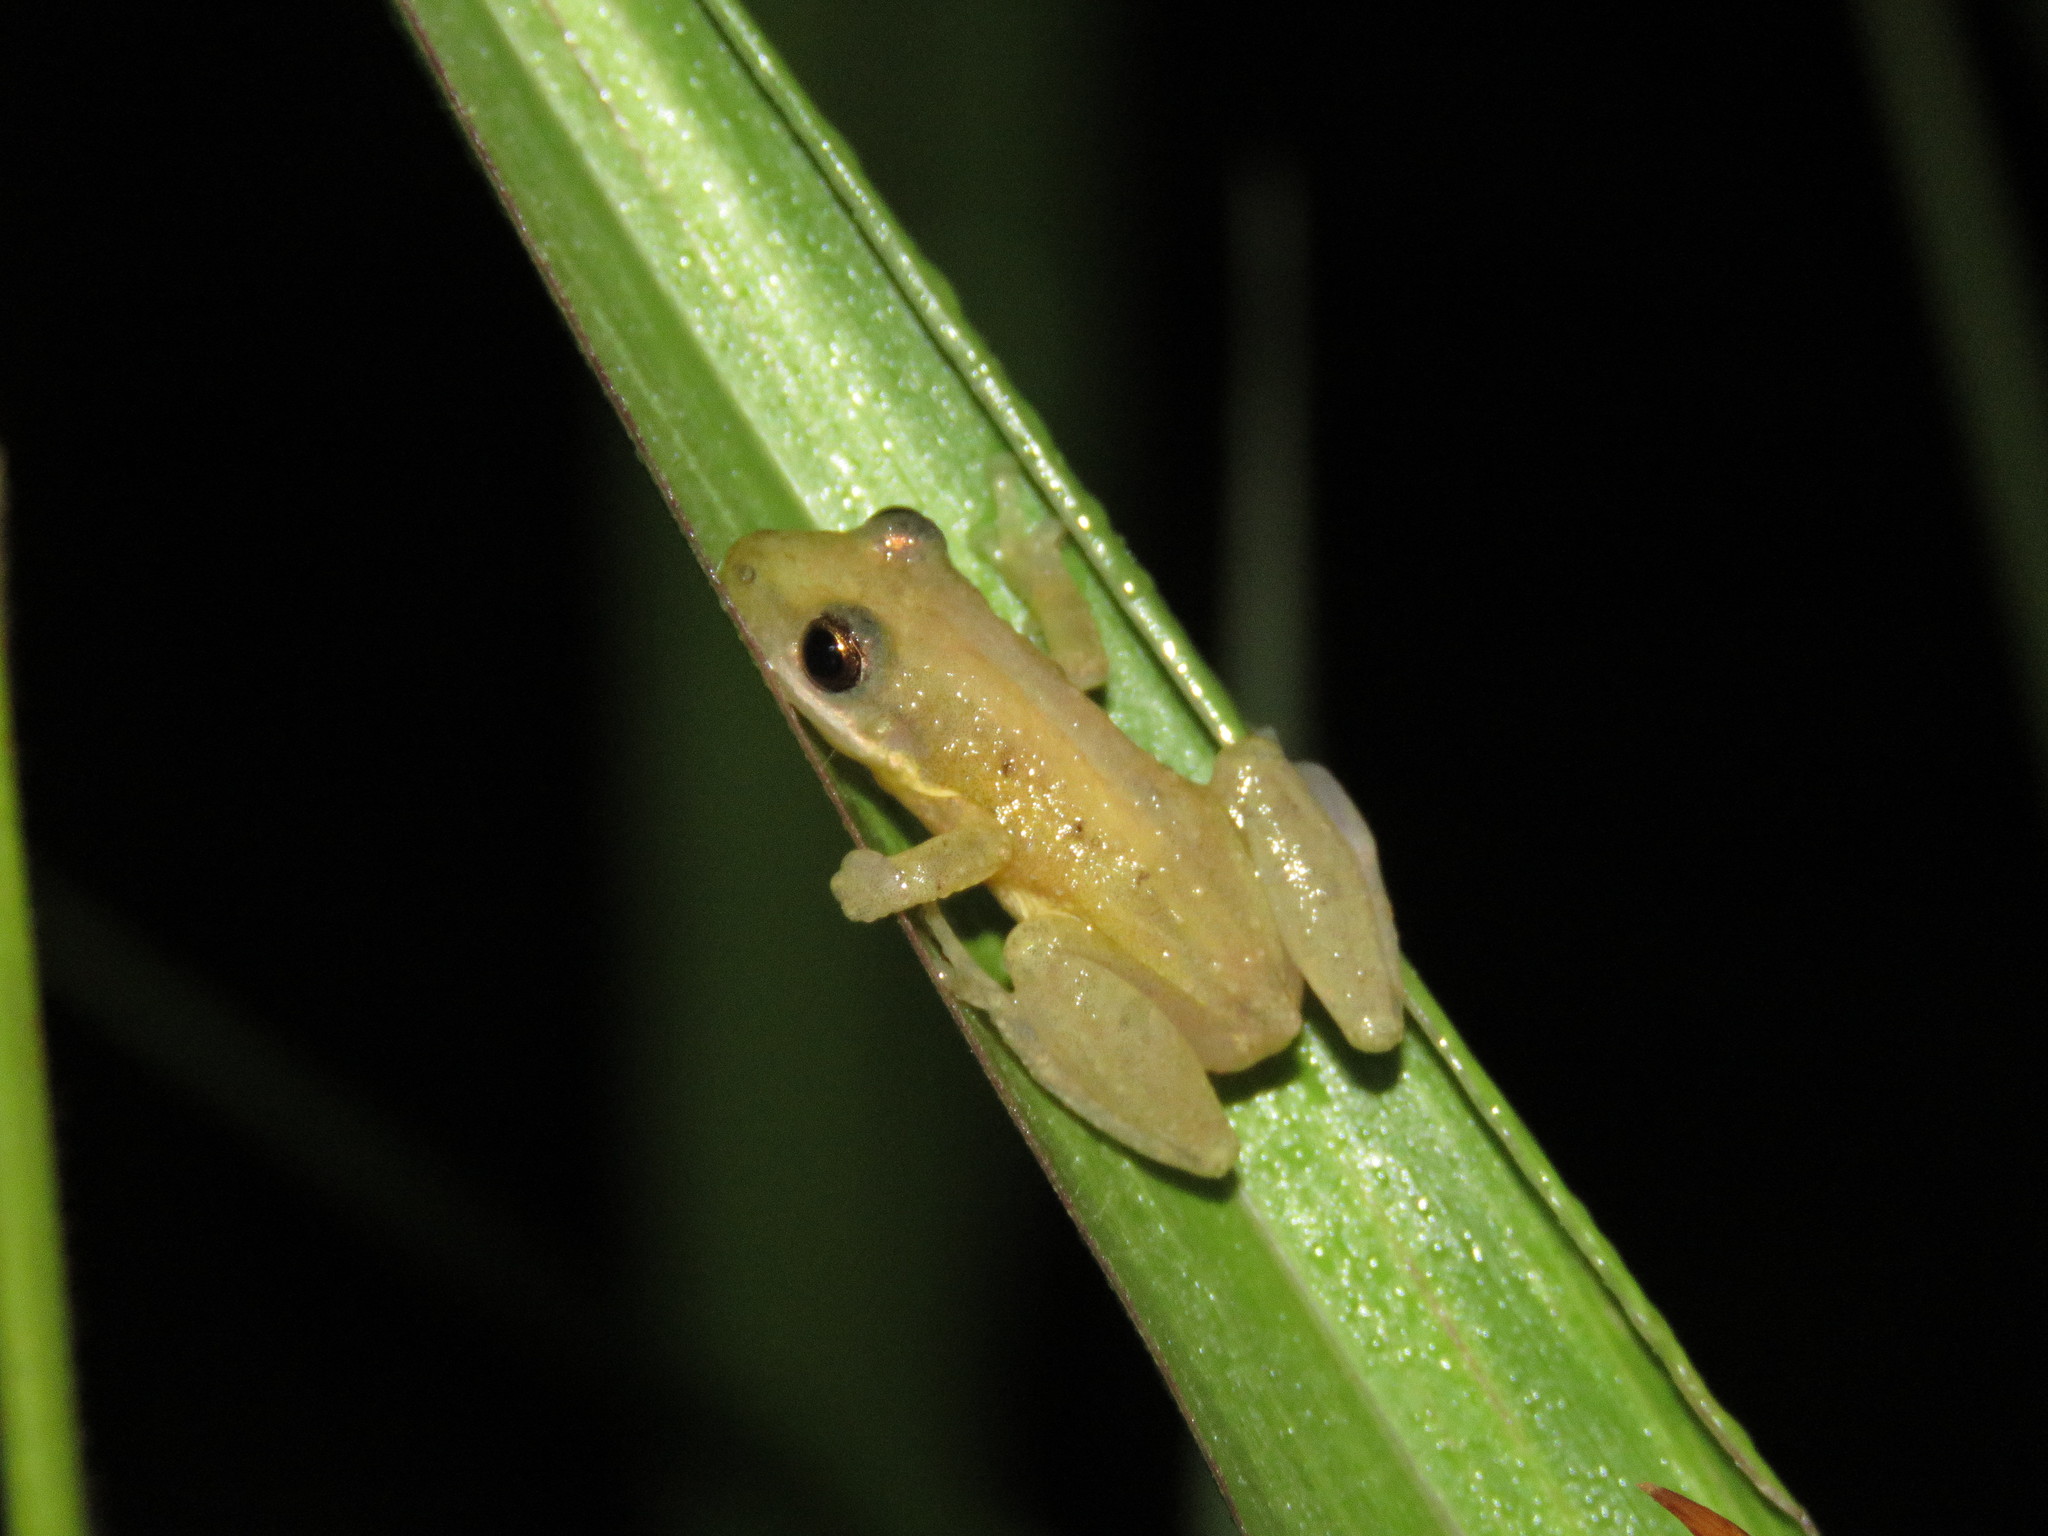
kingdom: Animalia
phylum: Chordata
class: Amphibia
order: Anura
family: Hylidae
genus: Scinax
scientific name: Scinax fuscomarginatus
